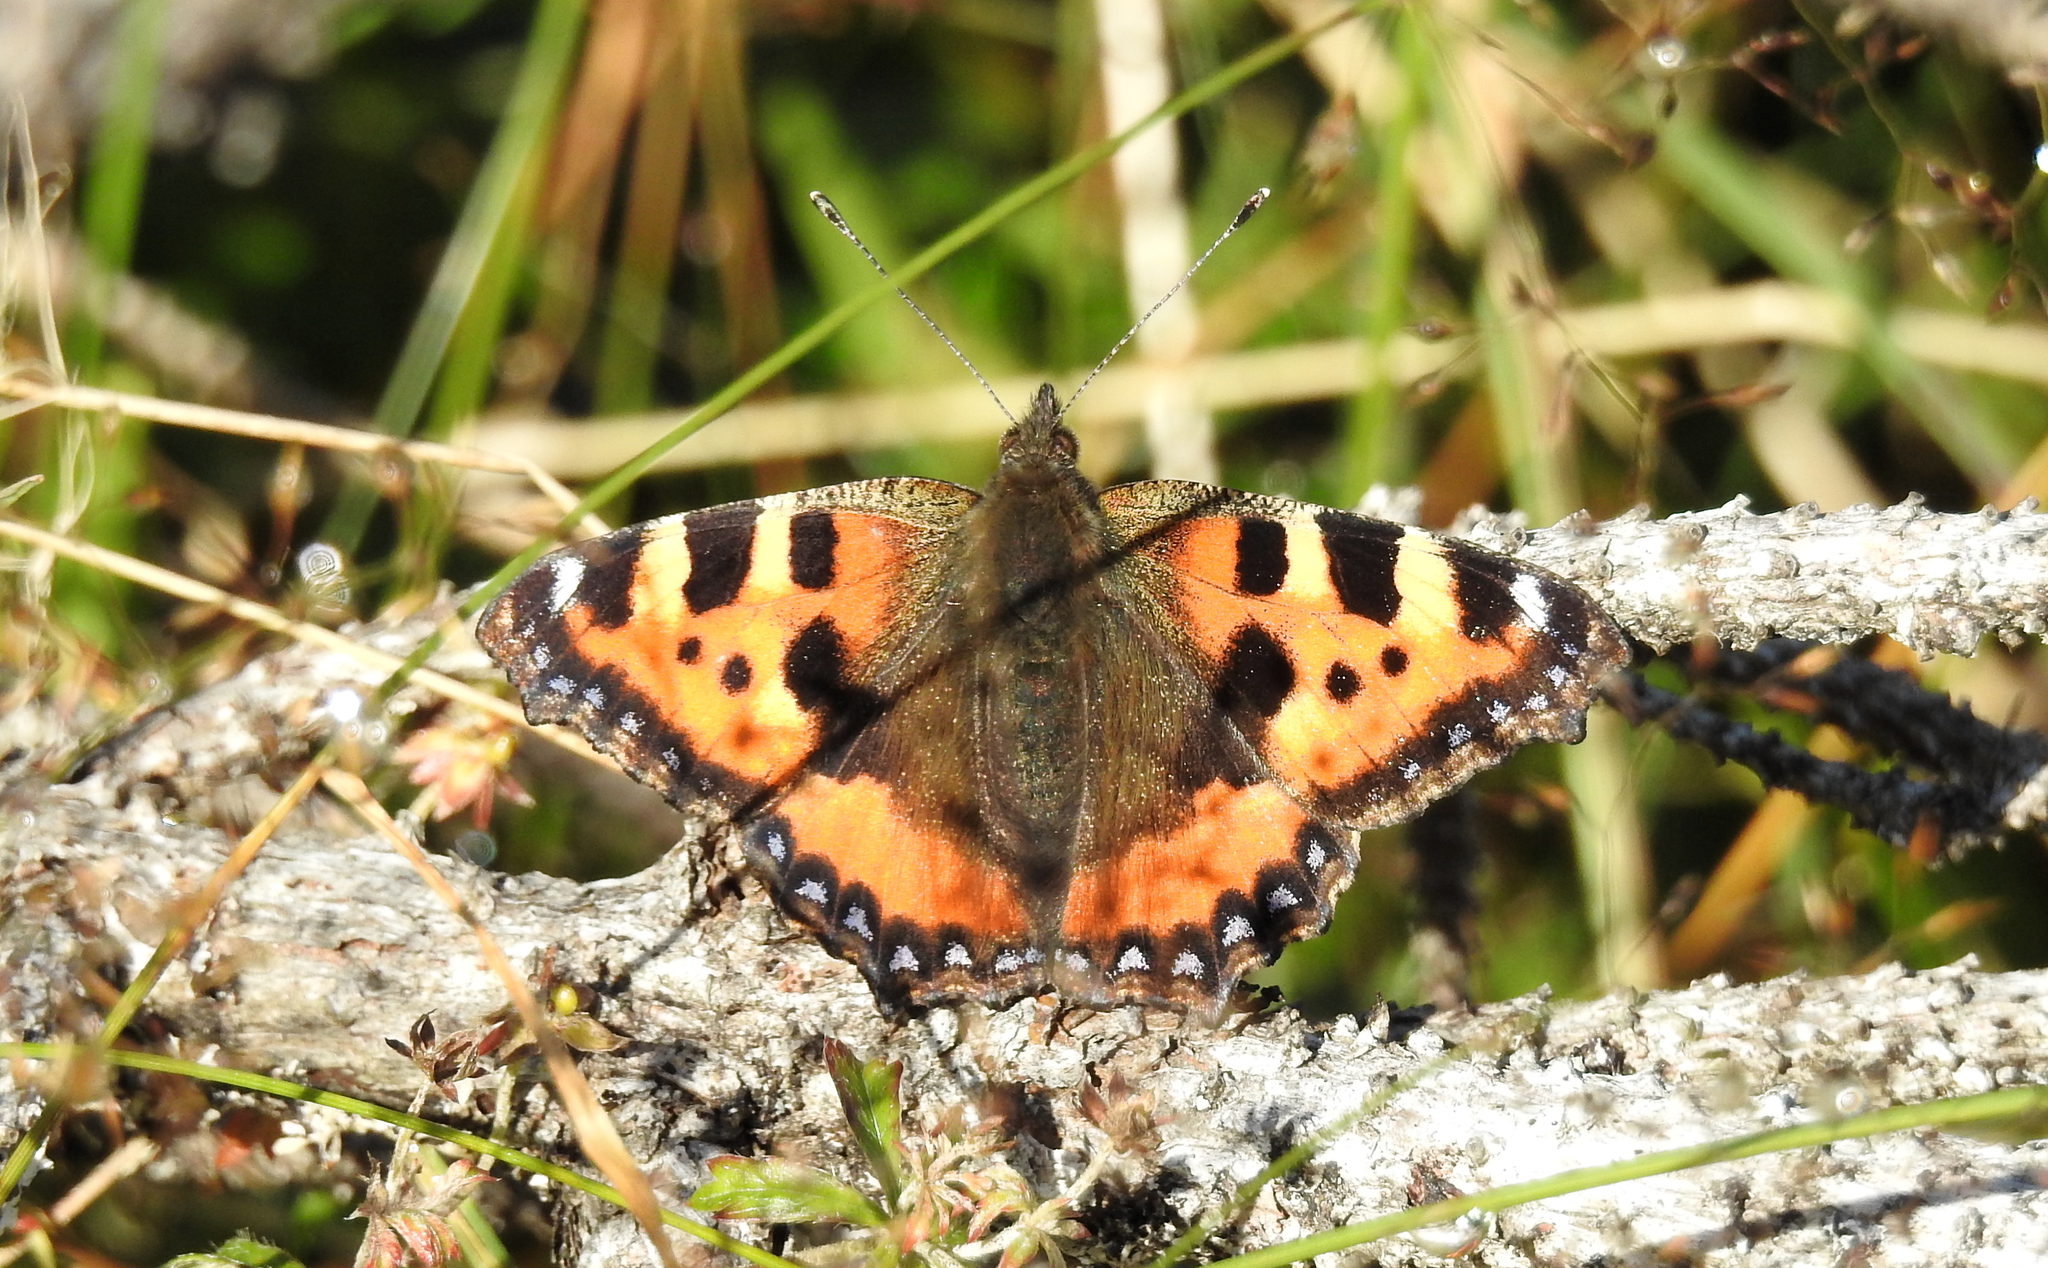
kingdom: Animalia
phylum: Arthropoda
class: Insecta
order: Lepidoptera
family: Nymphalidae
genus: Aglais
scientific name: Aglais urticae
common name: Small tortoiseshell
